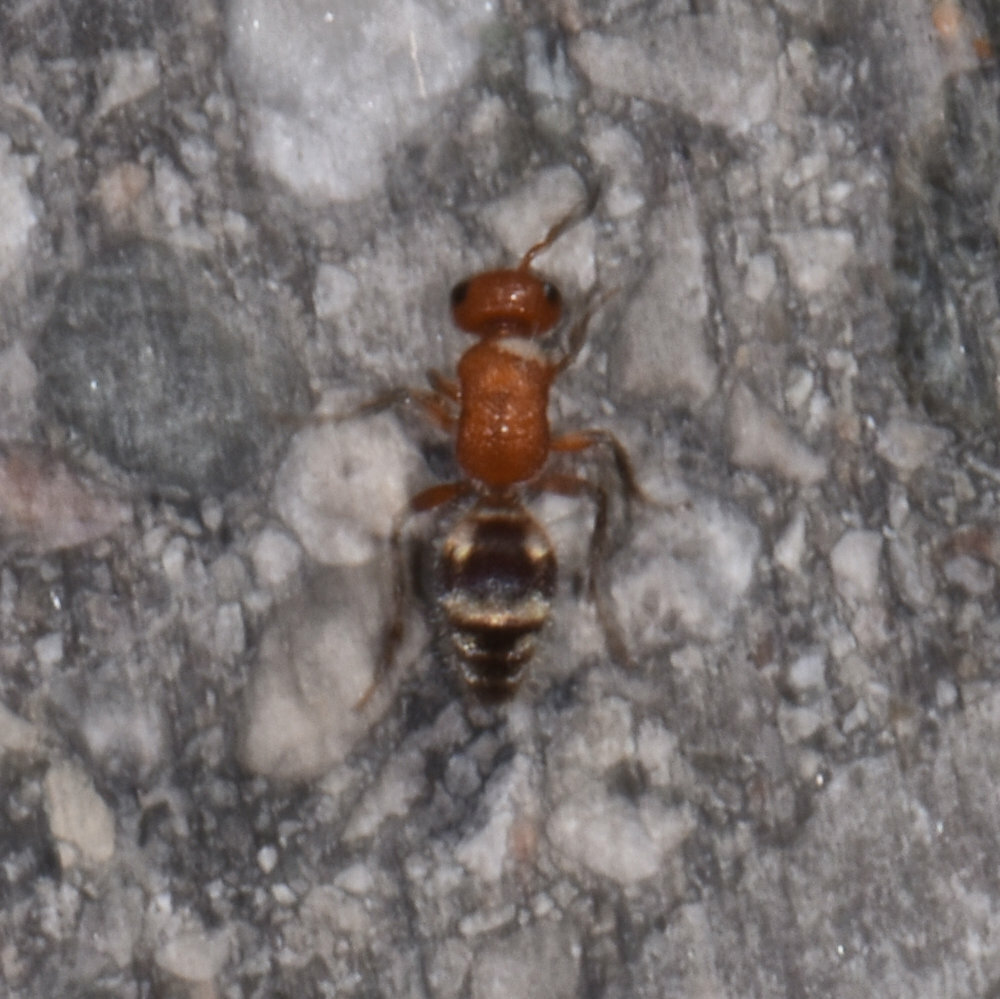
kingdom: Animalia
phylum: Arthropoda
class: Insecta
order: Hymenoptera
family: Mutillidae
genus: Timulla
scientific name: Timulla
